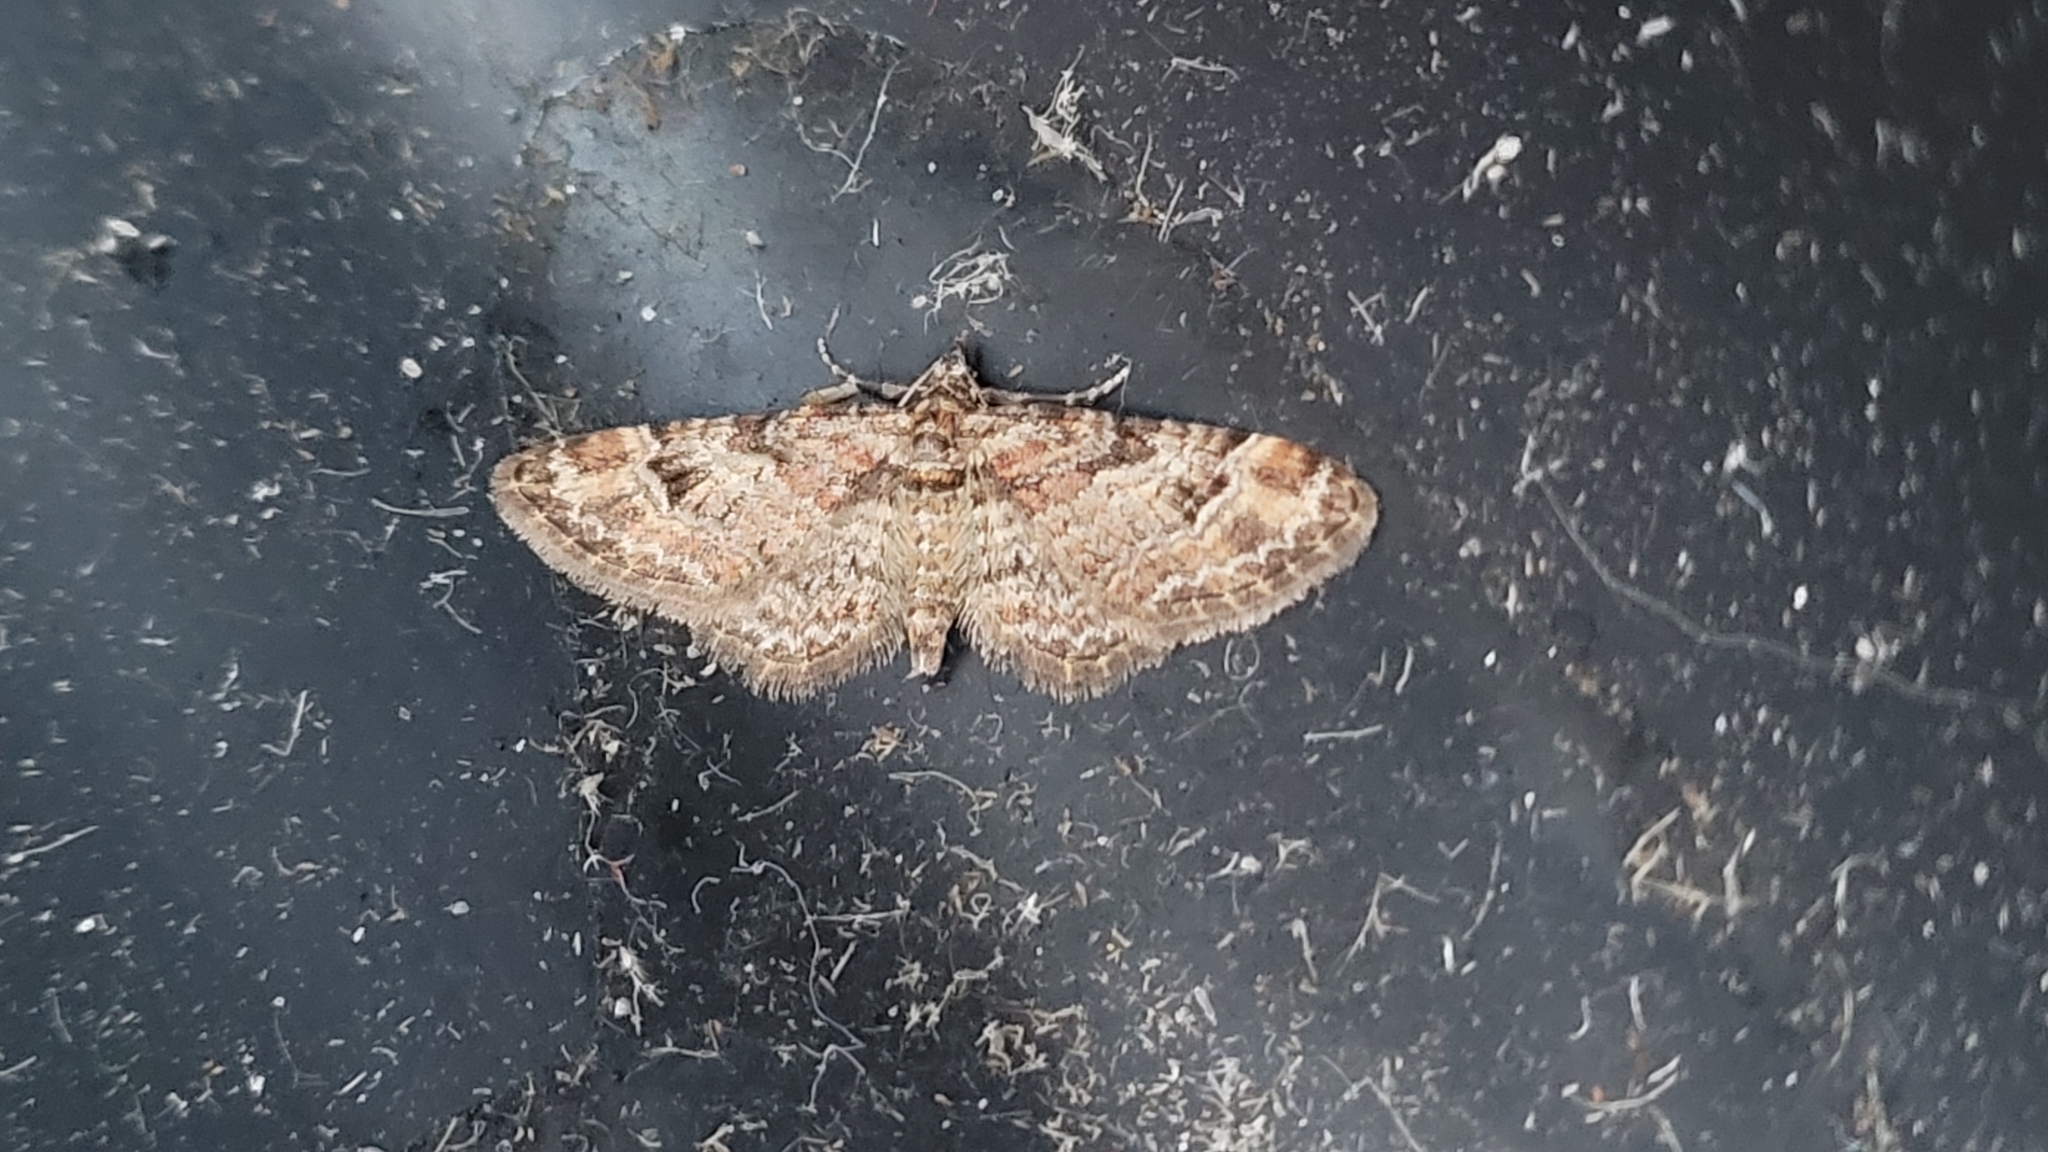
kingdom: Animalia
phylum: Arthropoda
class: Insecta
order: Lepidoptera
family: Geometridae
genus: Gymnoscelis
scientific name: Gymnoscelis rufifasciata
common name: Double-striped pug
